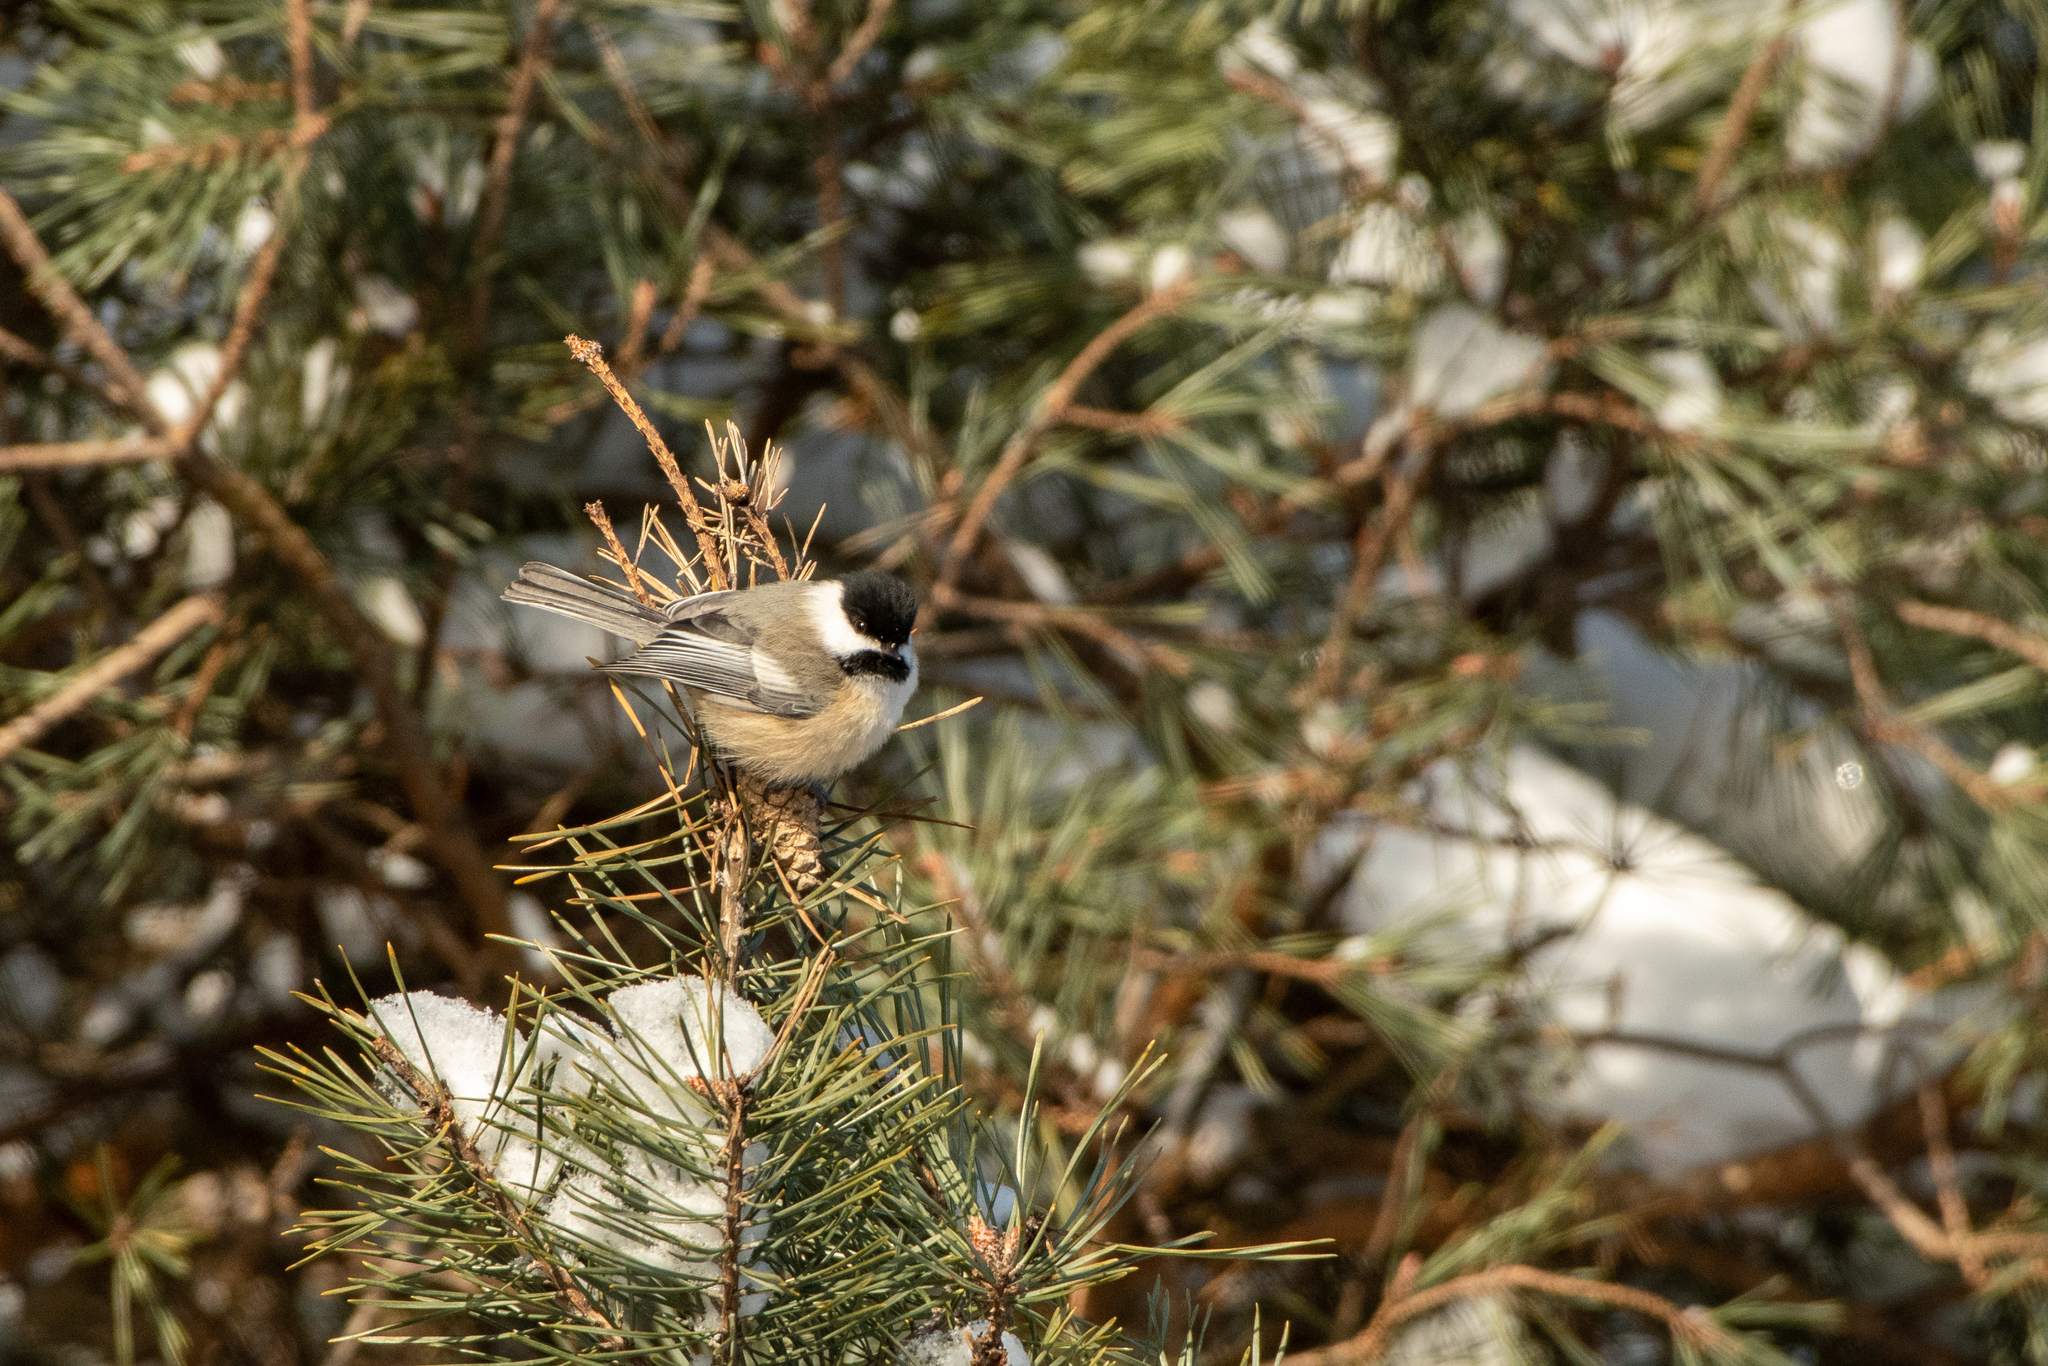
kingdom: Animalia
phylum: Chordata
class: Aves
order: Passeriformes
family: Paridae
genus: Poecile
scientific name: Poecile atricapillus
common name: Black-capped chickadee
